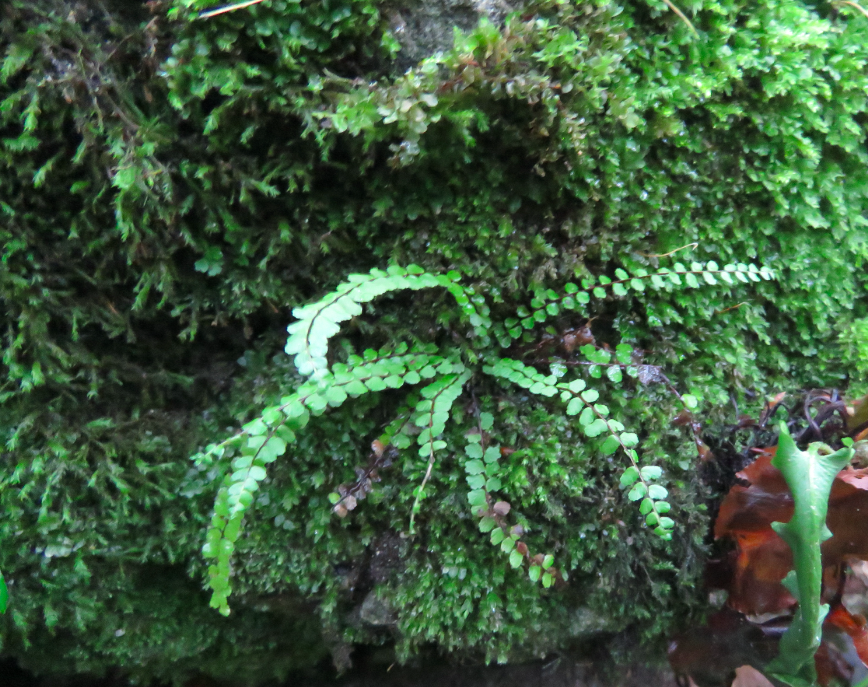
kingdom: Plantae
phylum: Tracheophyta
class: Polypodiopsida
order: Polypodiales
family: Aspleniaceae
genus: Asplenium
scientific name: Asplenium trichomanes
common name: Maidenhair spleenwort
